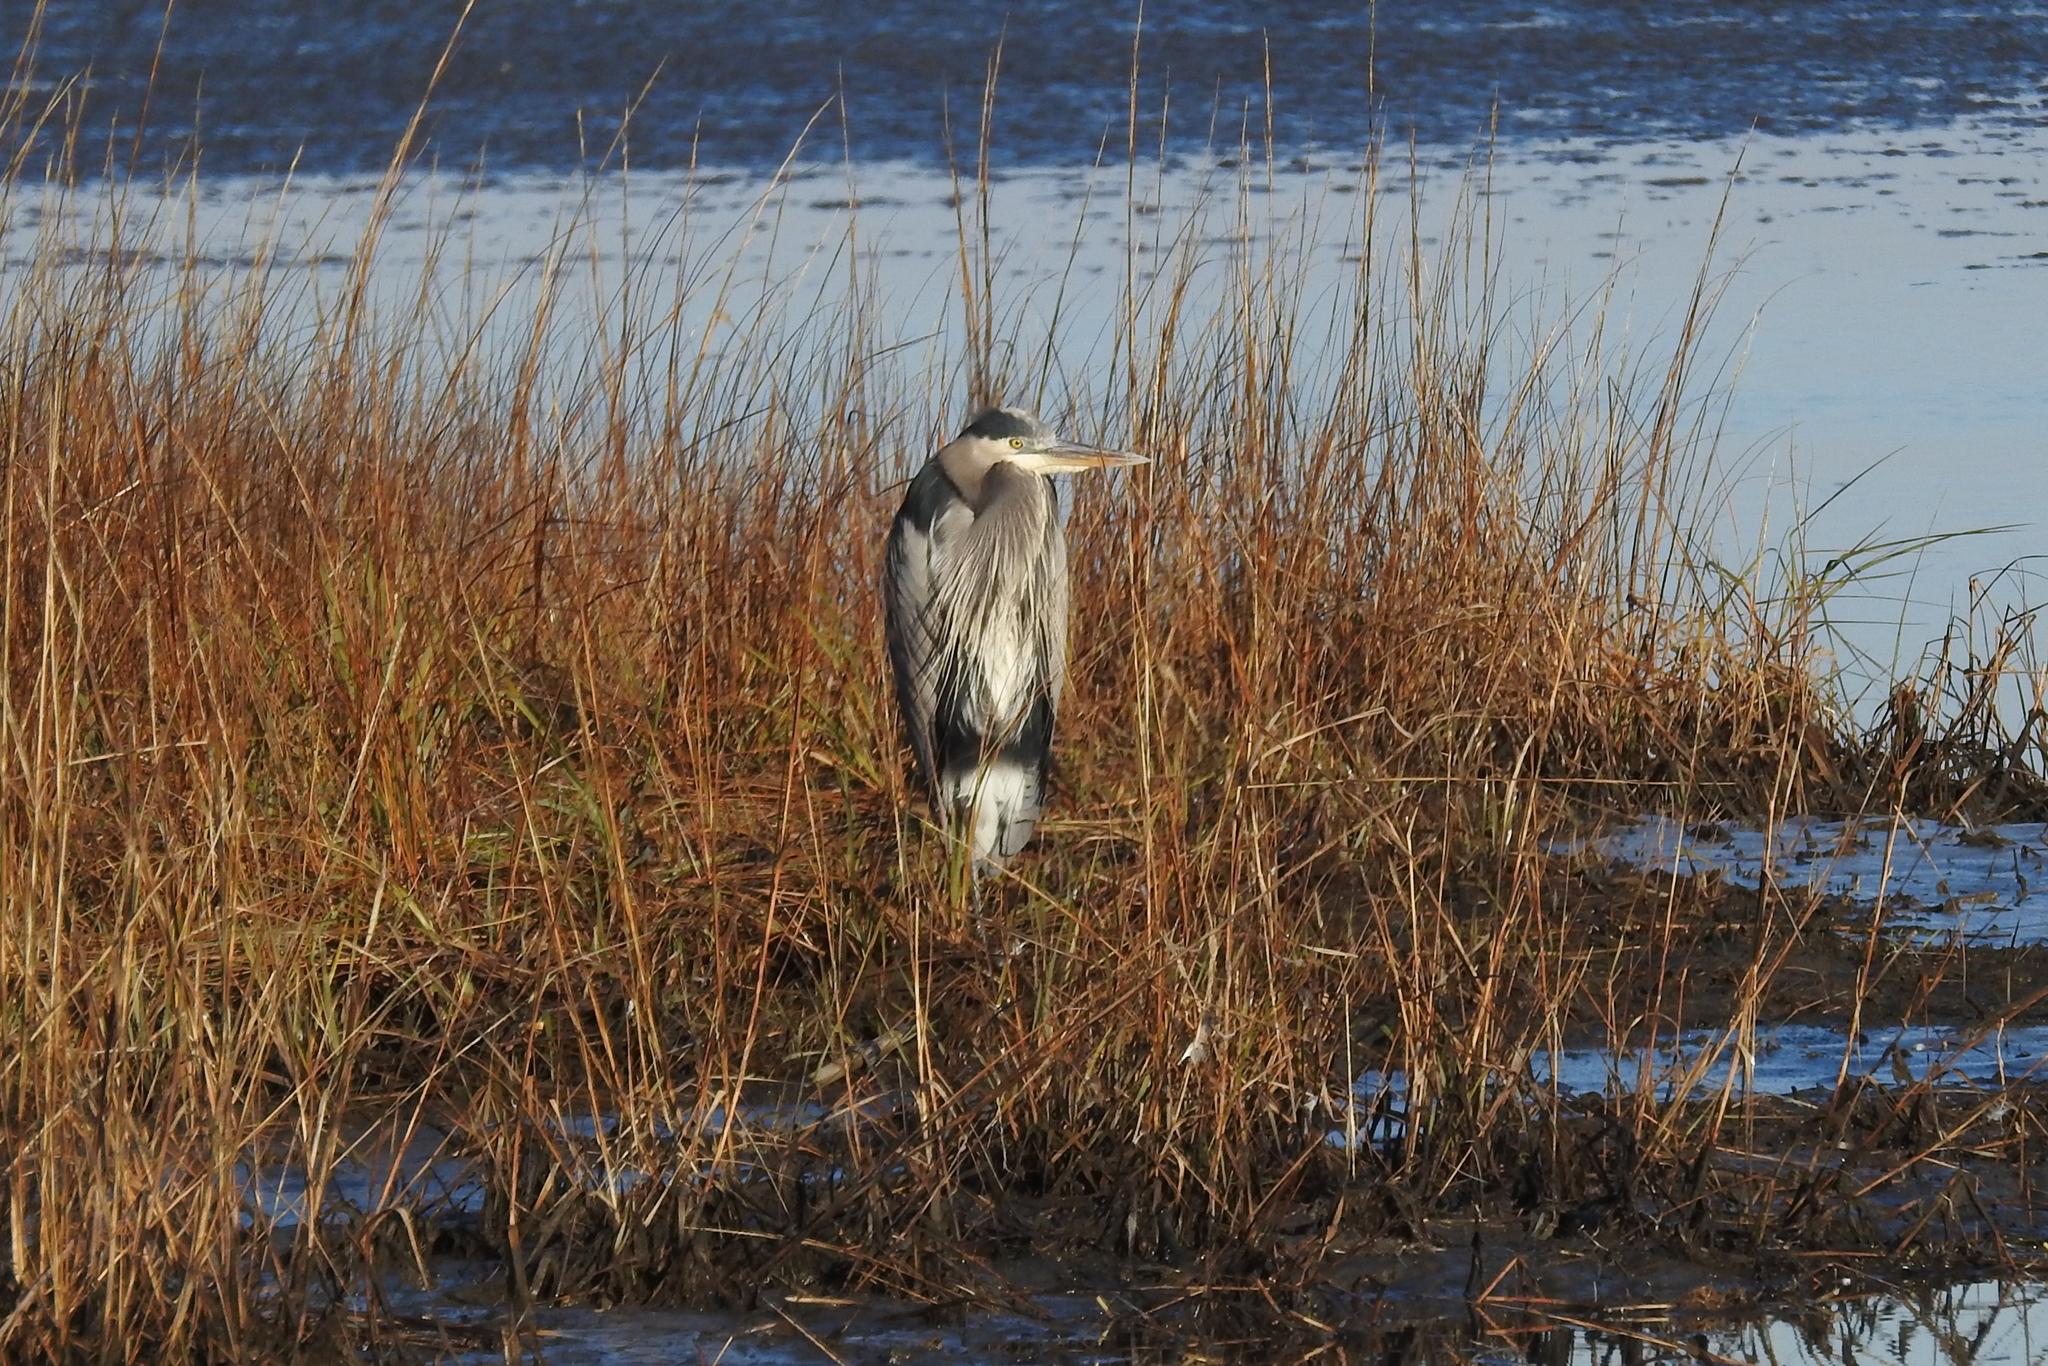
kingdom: Animalia
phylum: Chordata
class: Aves
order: Pelecaniformes
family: Ardeidae
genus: Ardea
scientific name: Ardea herodias
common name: Great blue heron
